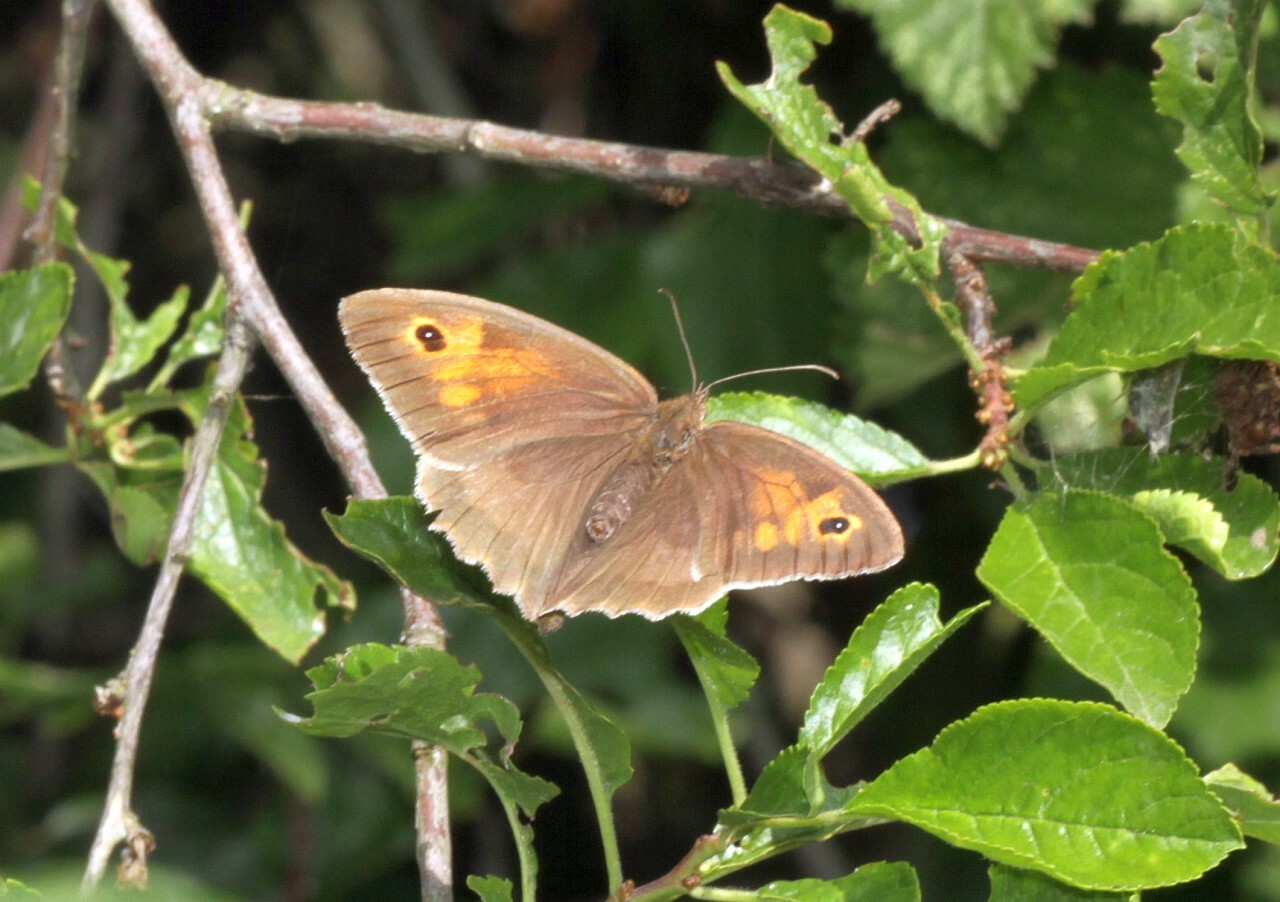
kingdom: Animalia
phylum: Arthropoda
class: Insecta
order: Lepidoptera
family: Nymphalidae
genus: Maniola
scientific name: Maniola jurtina
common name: Meadow brown
